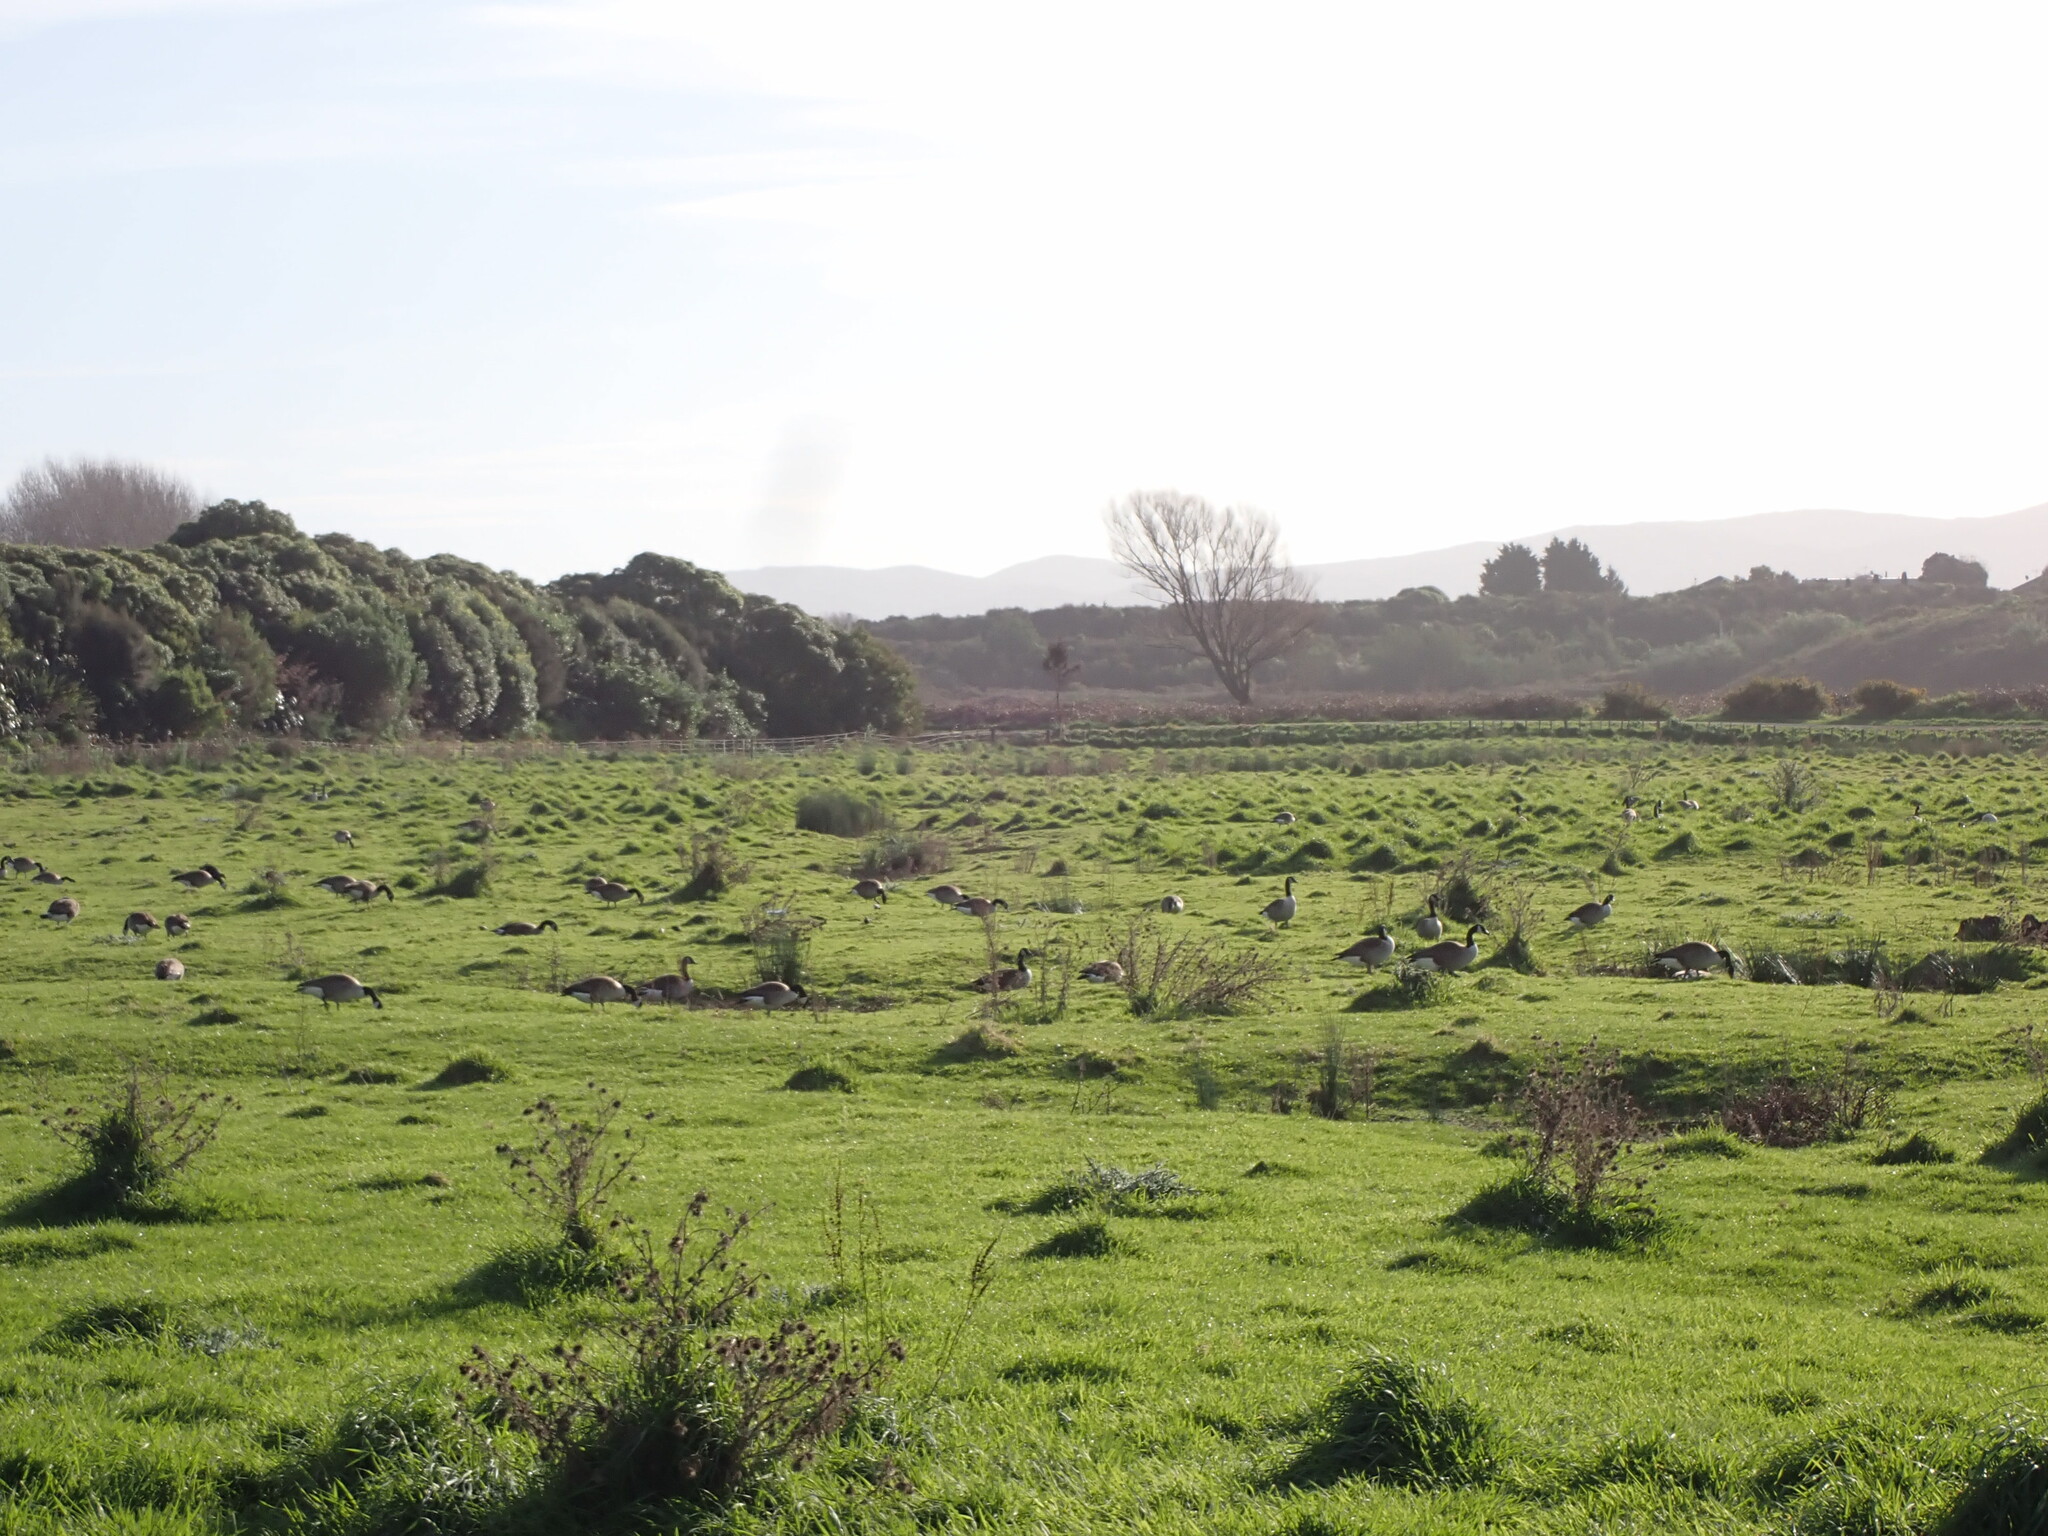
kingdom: Animalia
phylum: Chordata
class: Aves
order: Anseriformes
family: Anatidae
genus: Branta
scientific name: Branta canadensis
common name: Canada goose
